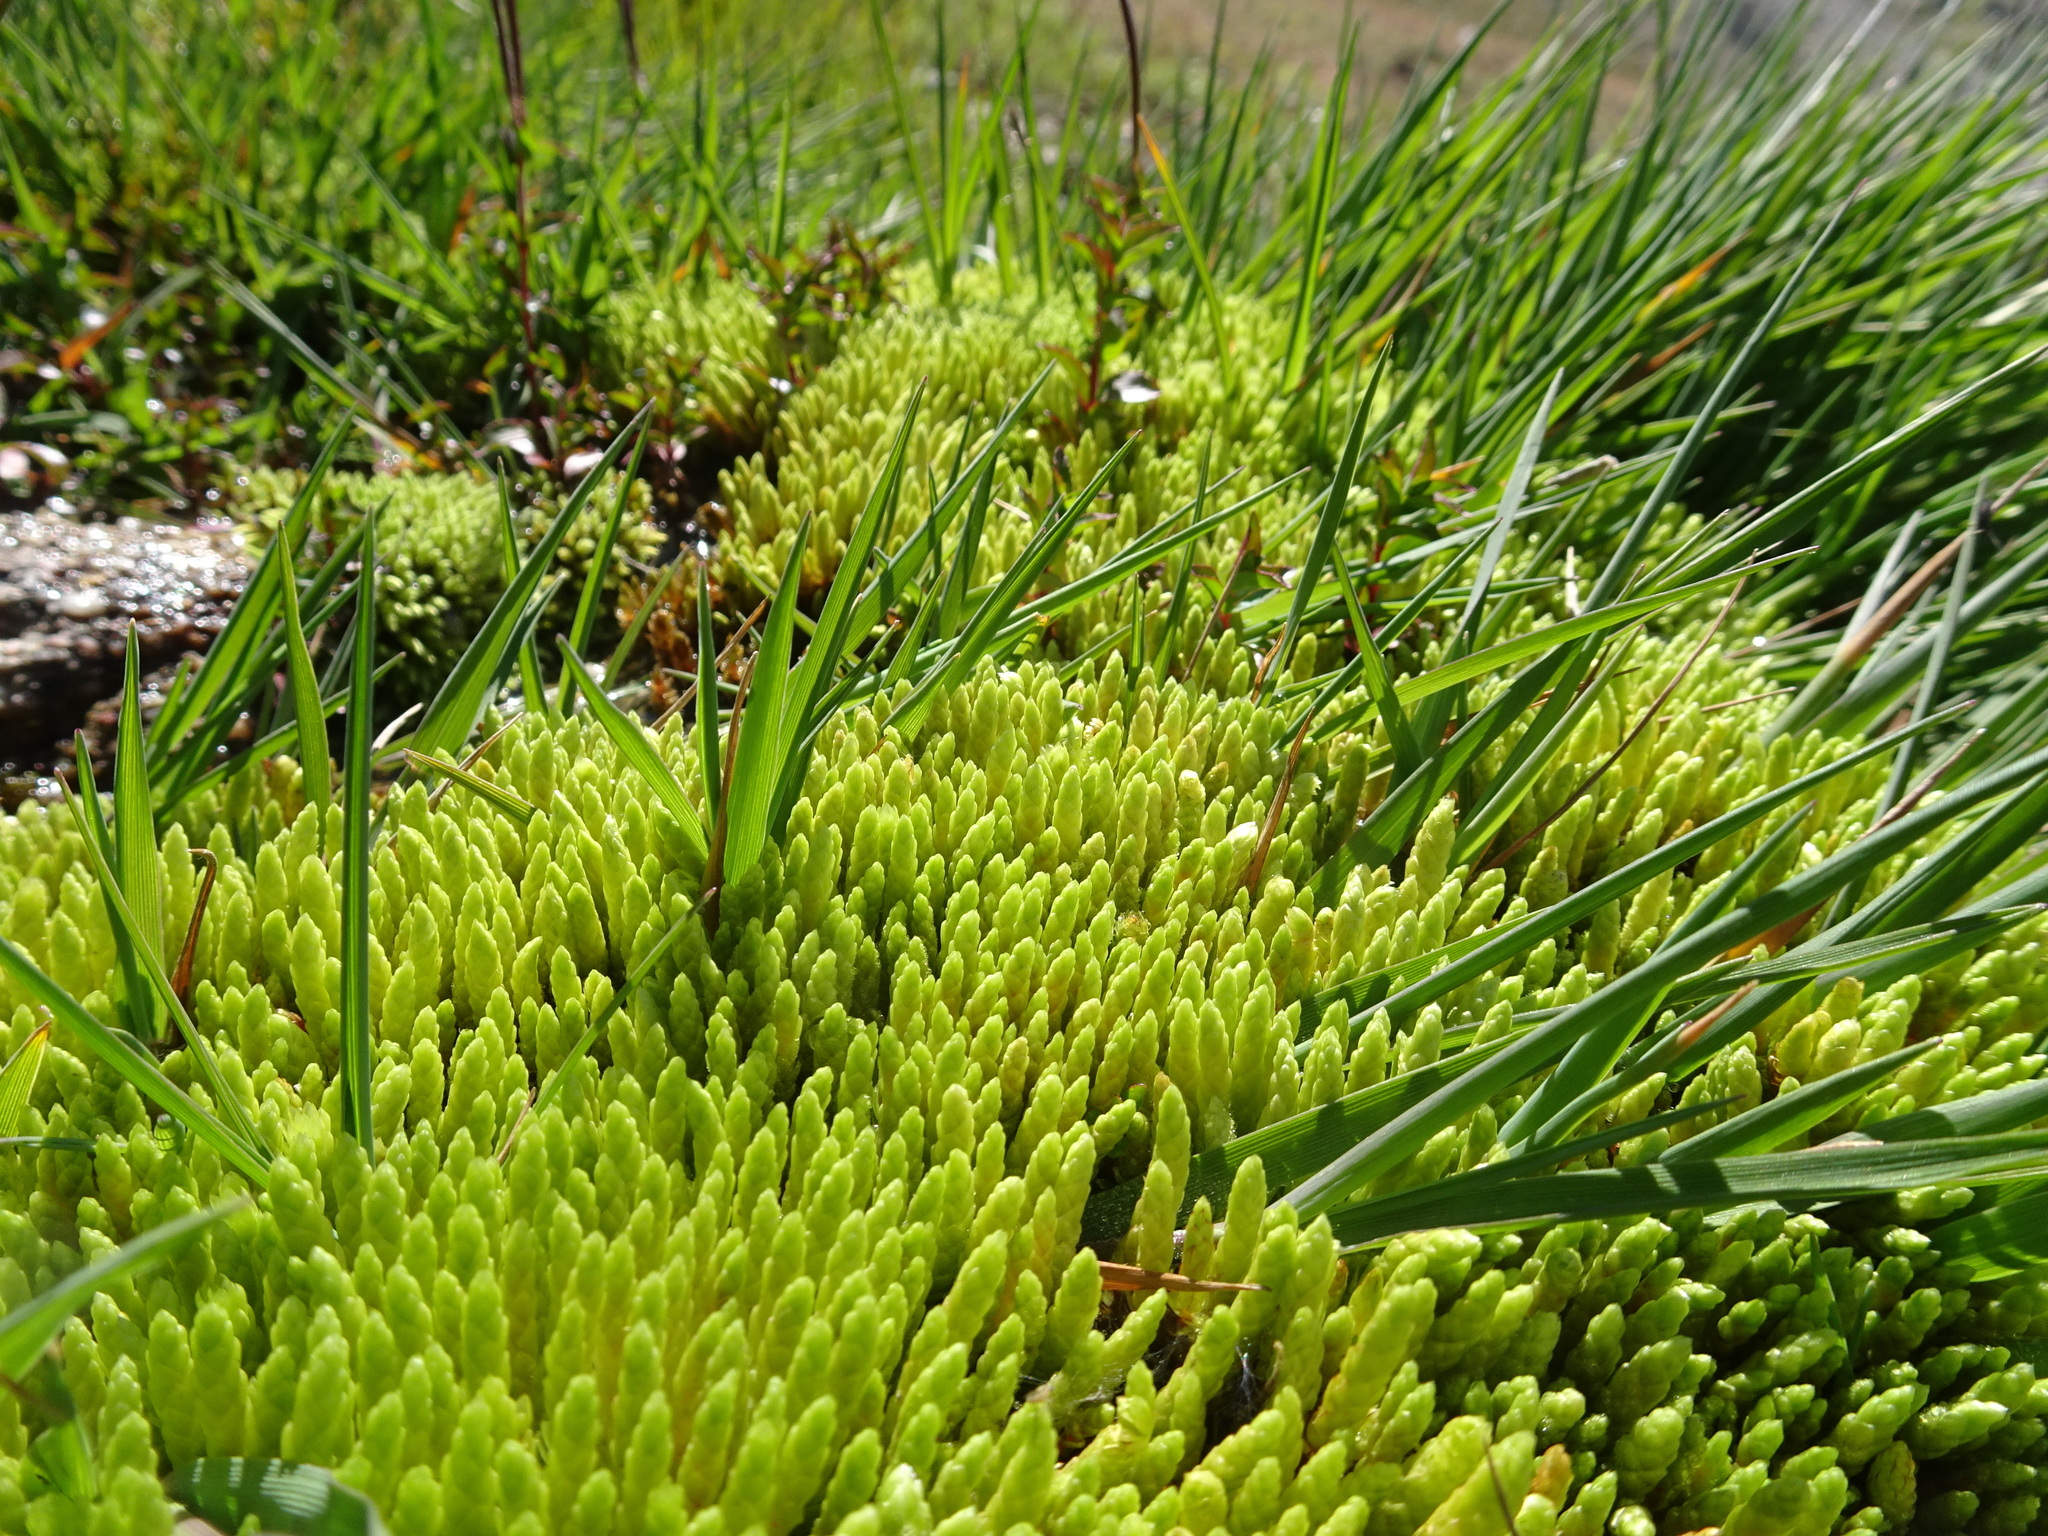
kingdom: Plantae
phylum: Bryophyta
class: Bryopsida
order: Bryales
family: Bryaceae
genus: Ptychostomum
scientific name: Ptychostomum schleicheri
